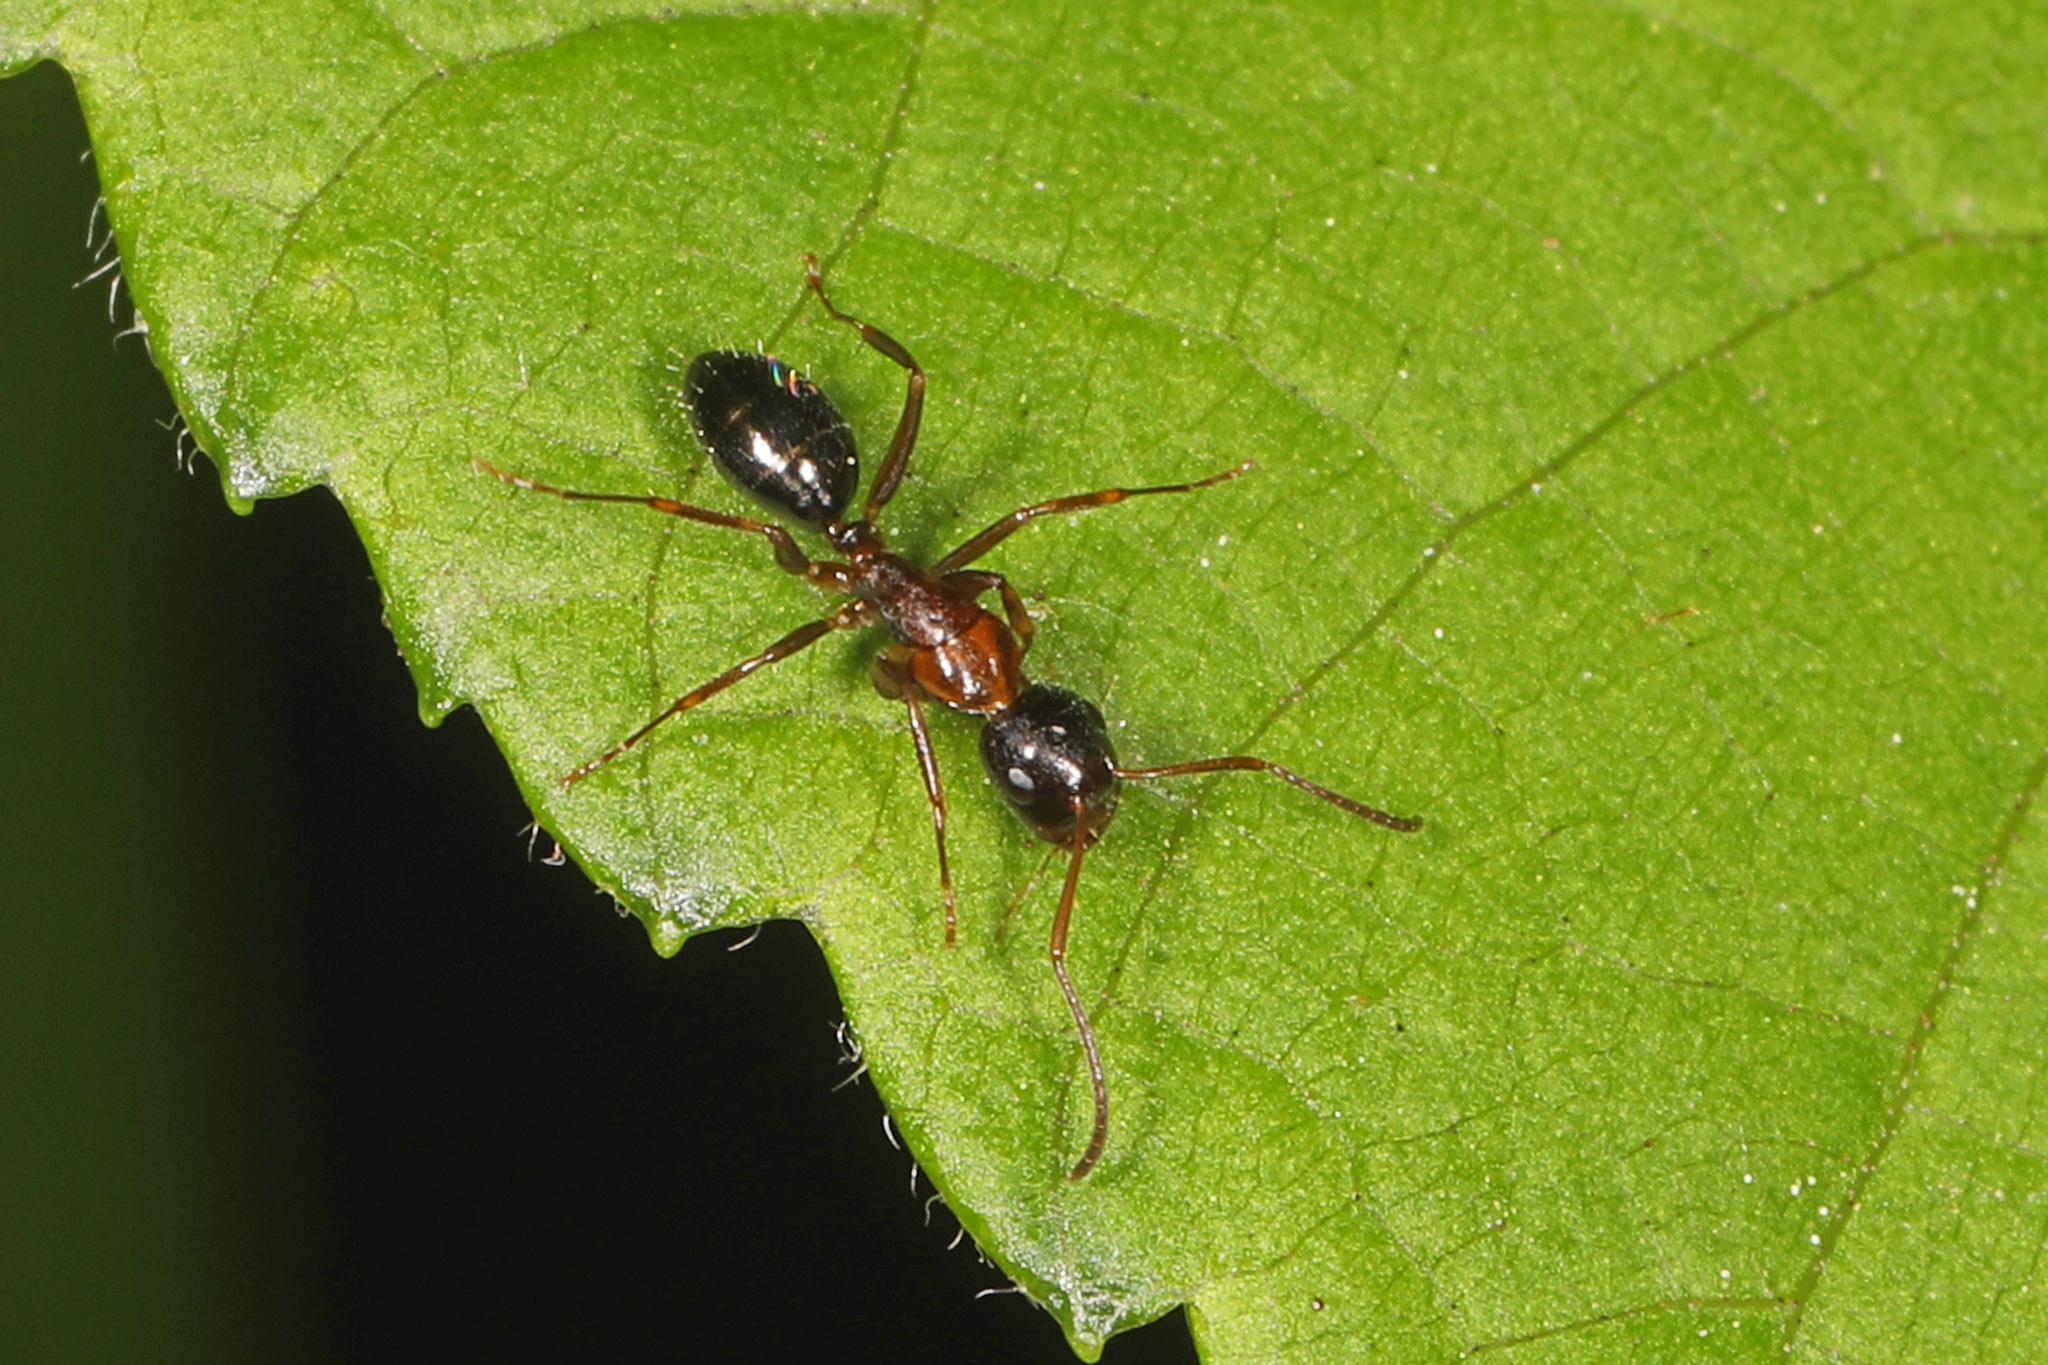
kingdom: Animalia
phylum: Arthropoda
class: Insecta
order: Hymenoptera
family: Formicidae
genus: Camponotus
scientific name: Camponotus nearcticus
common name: Smaller carpenter ant
